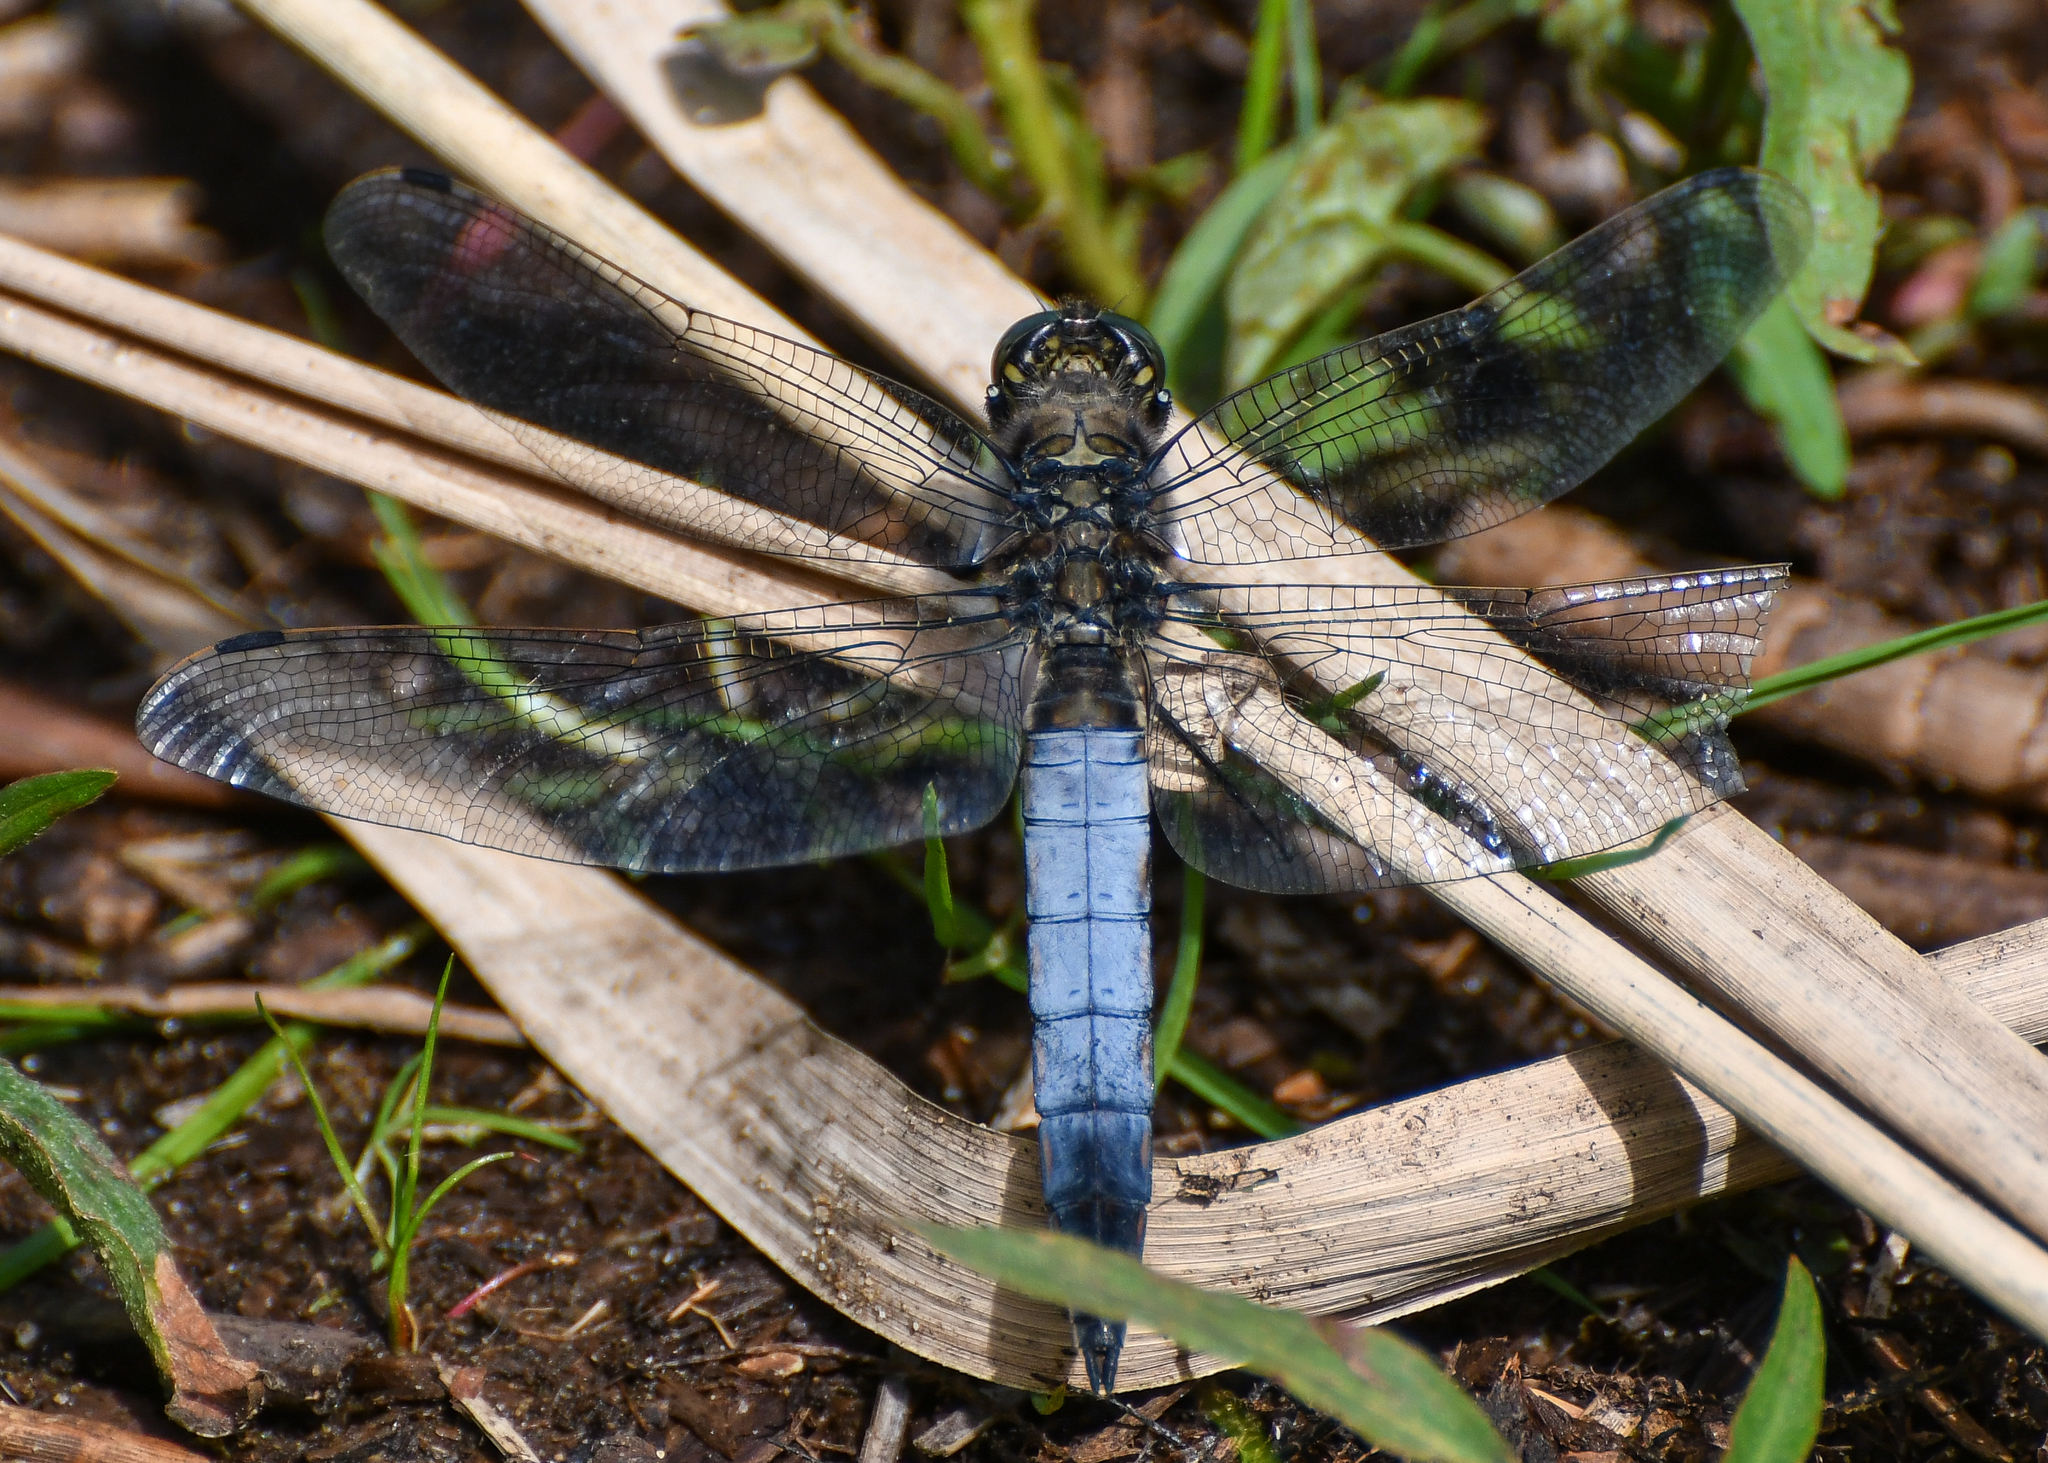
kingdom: Animalia
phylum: Arthropoda
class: Insecta
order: Odonata
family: Libellulidae
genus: Orthetrum
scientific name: Orthetrum cancellatum
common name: Black-tailed skimmer
